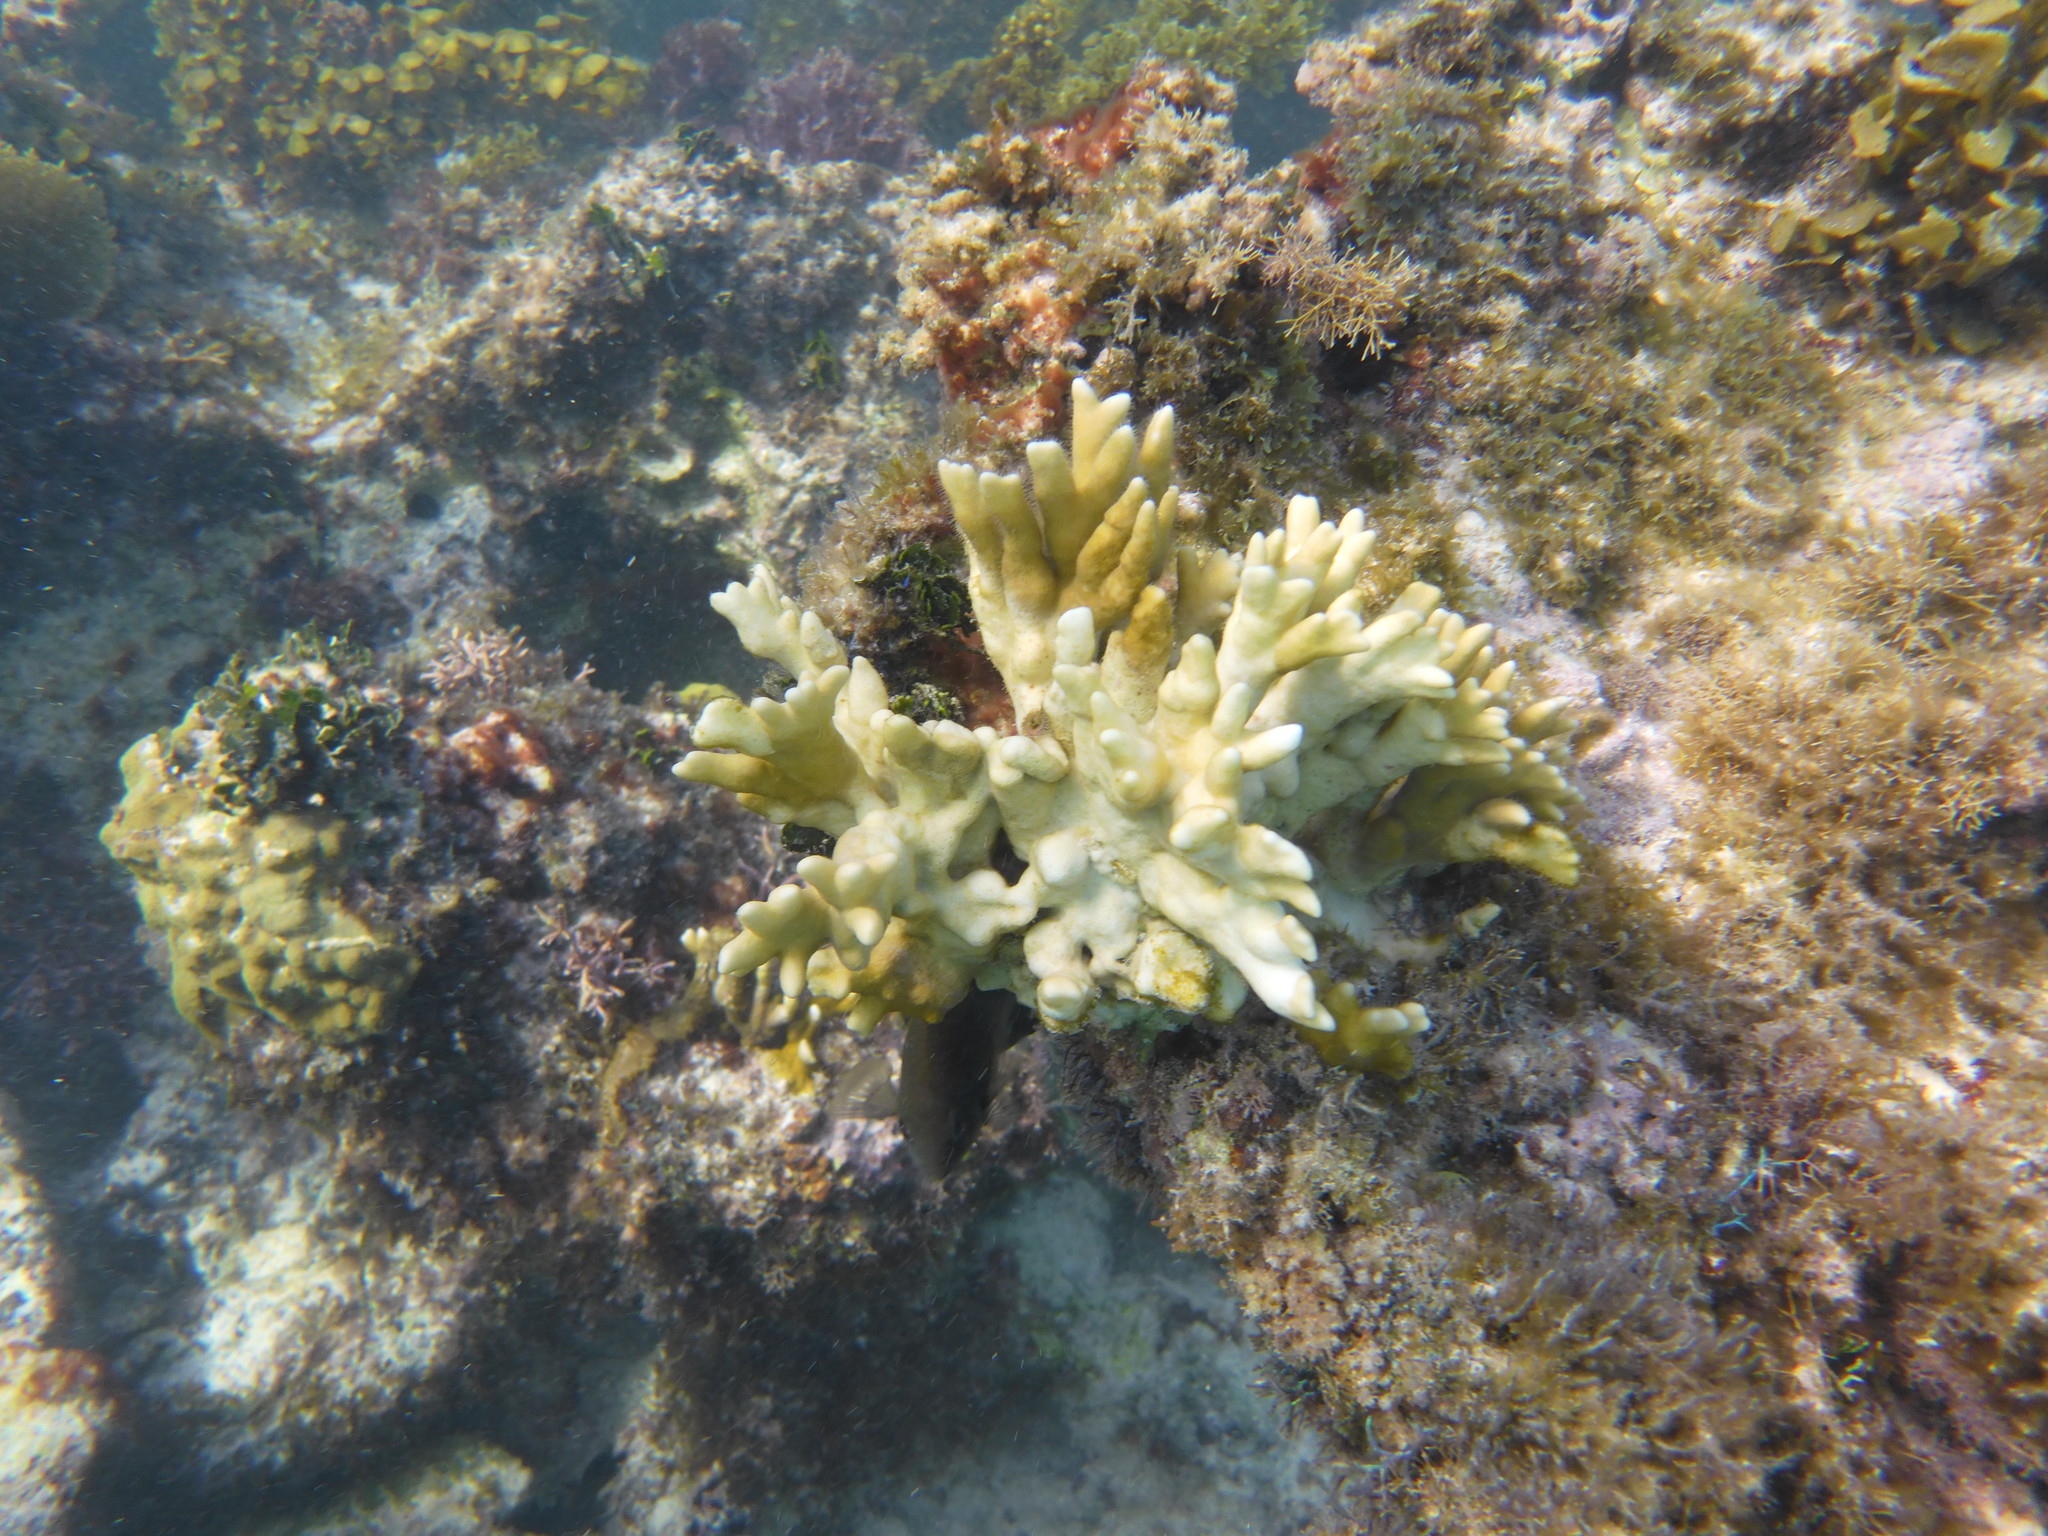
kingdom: Animalia
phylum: Cnidaria
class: Hydrozoa
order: Anthoathecata
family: Milleporidae
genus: Millepora
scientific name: Millepora alcicornis
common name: Branching fire coral
